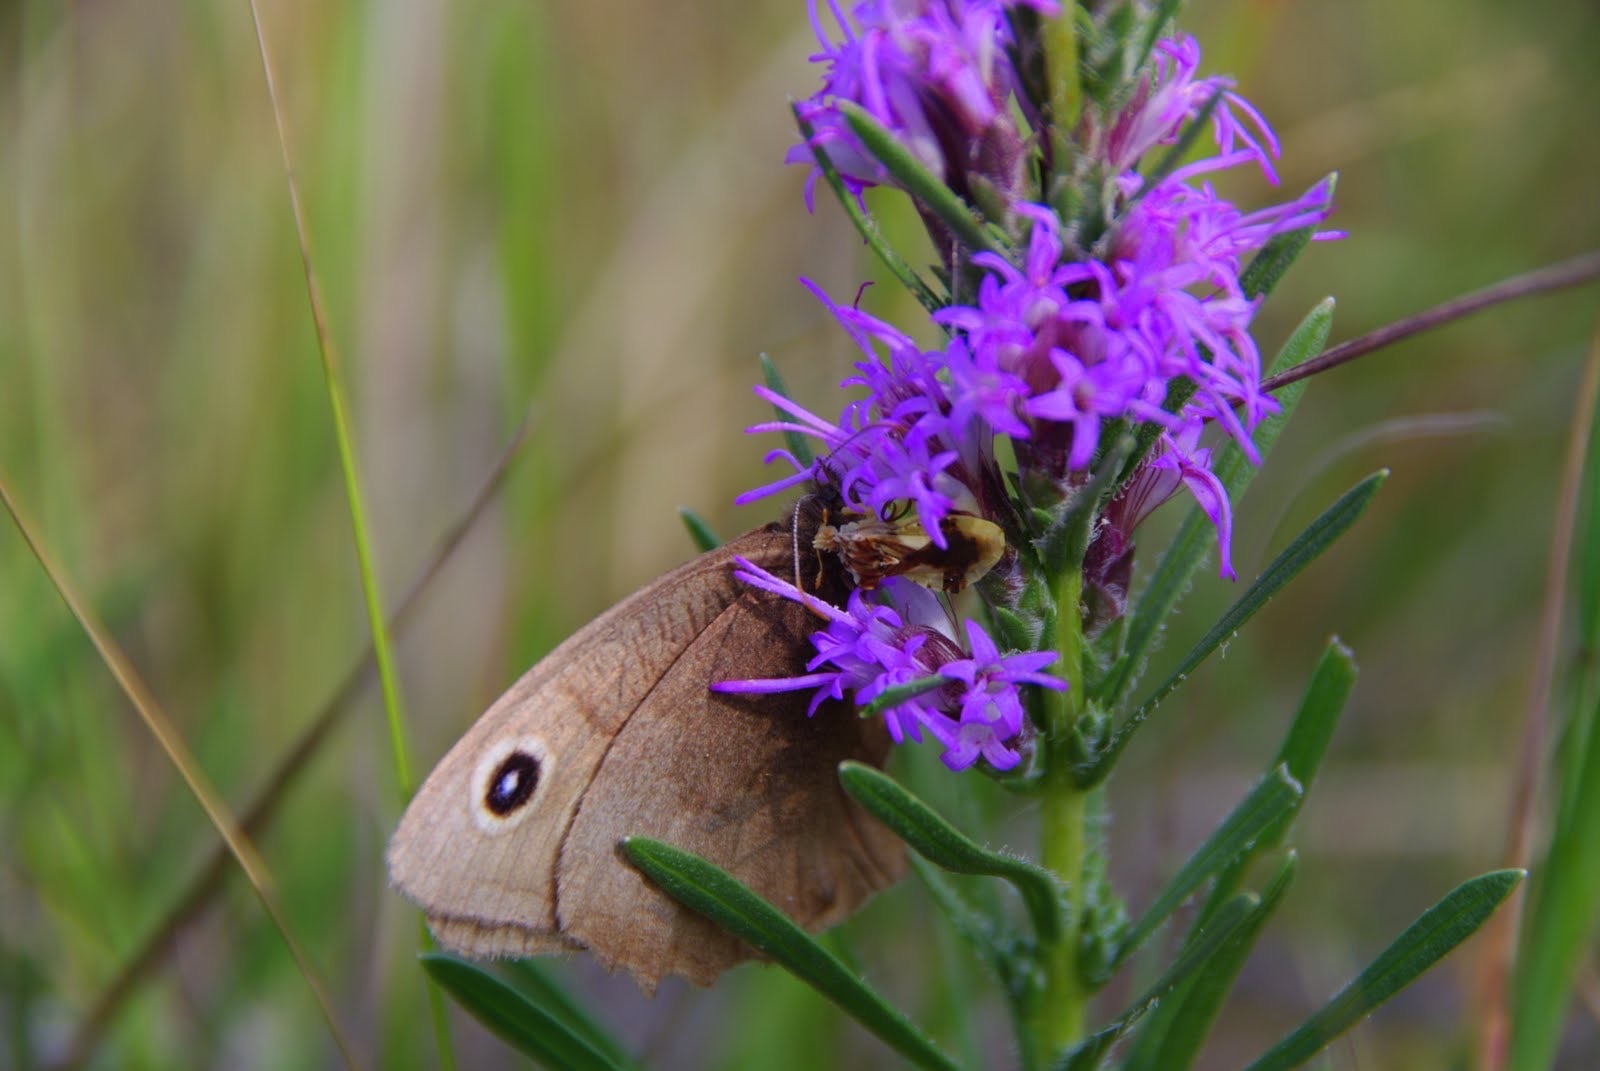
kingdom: Animalia
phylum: Arthropoda
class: Insecta
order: Lepidoptera
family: Nymphalidae
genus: Cercyonis
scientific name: Cercyonis pegala
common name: Common wood-nymph
